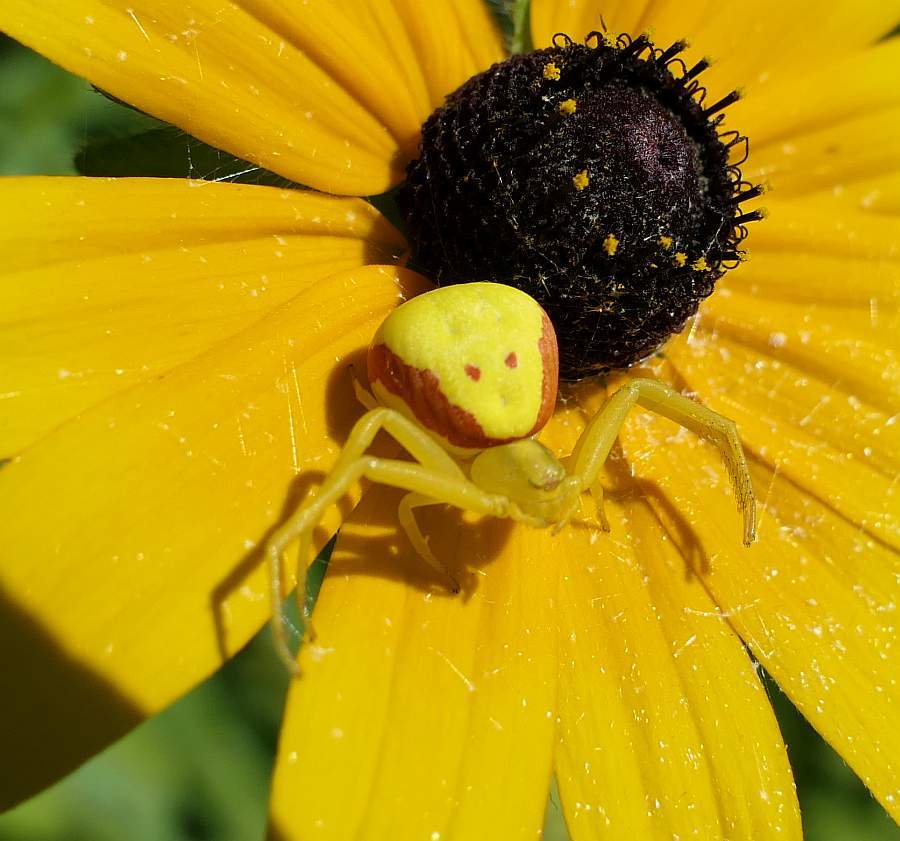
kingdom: Animalia
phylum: Arthropoda
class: Arachnida
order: Araneae
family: Thomisidae
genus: Misumena
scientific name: Misumena vatia
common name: Goldenrod crab spider
